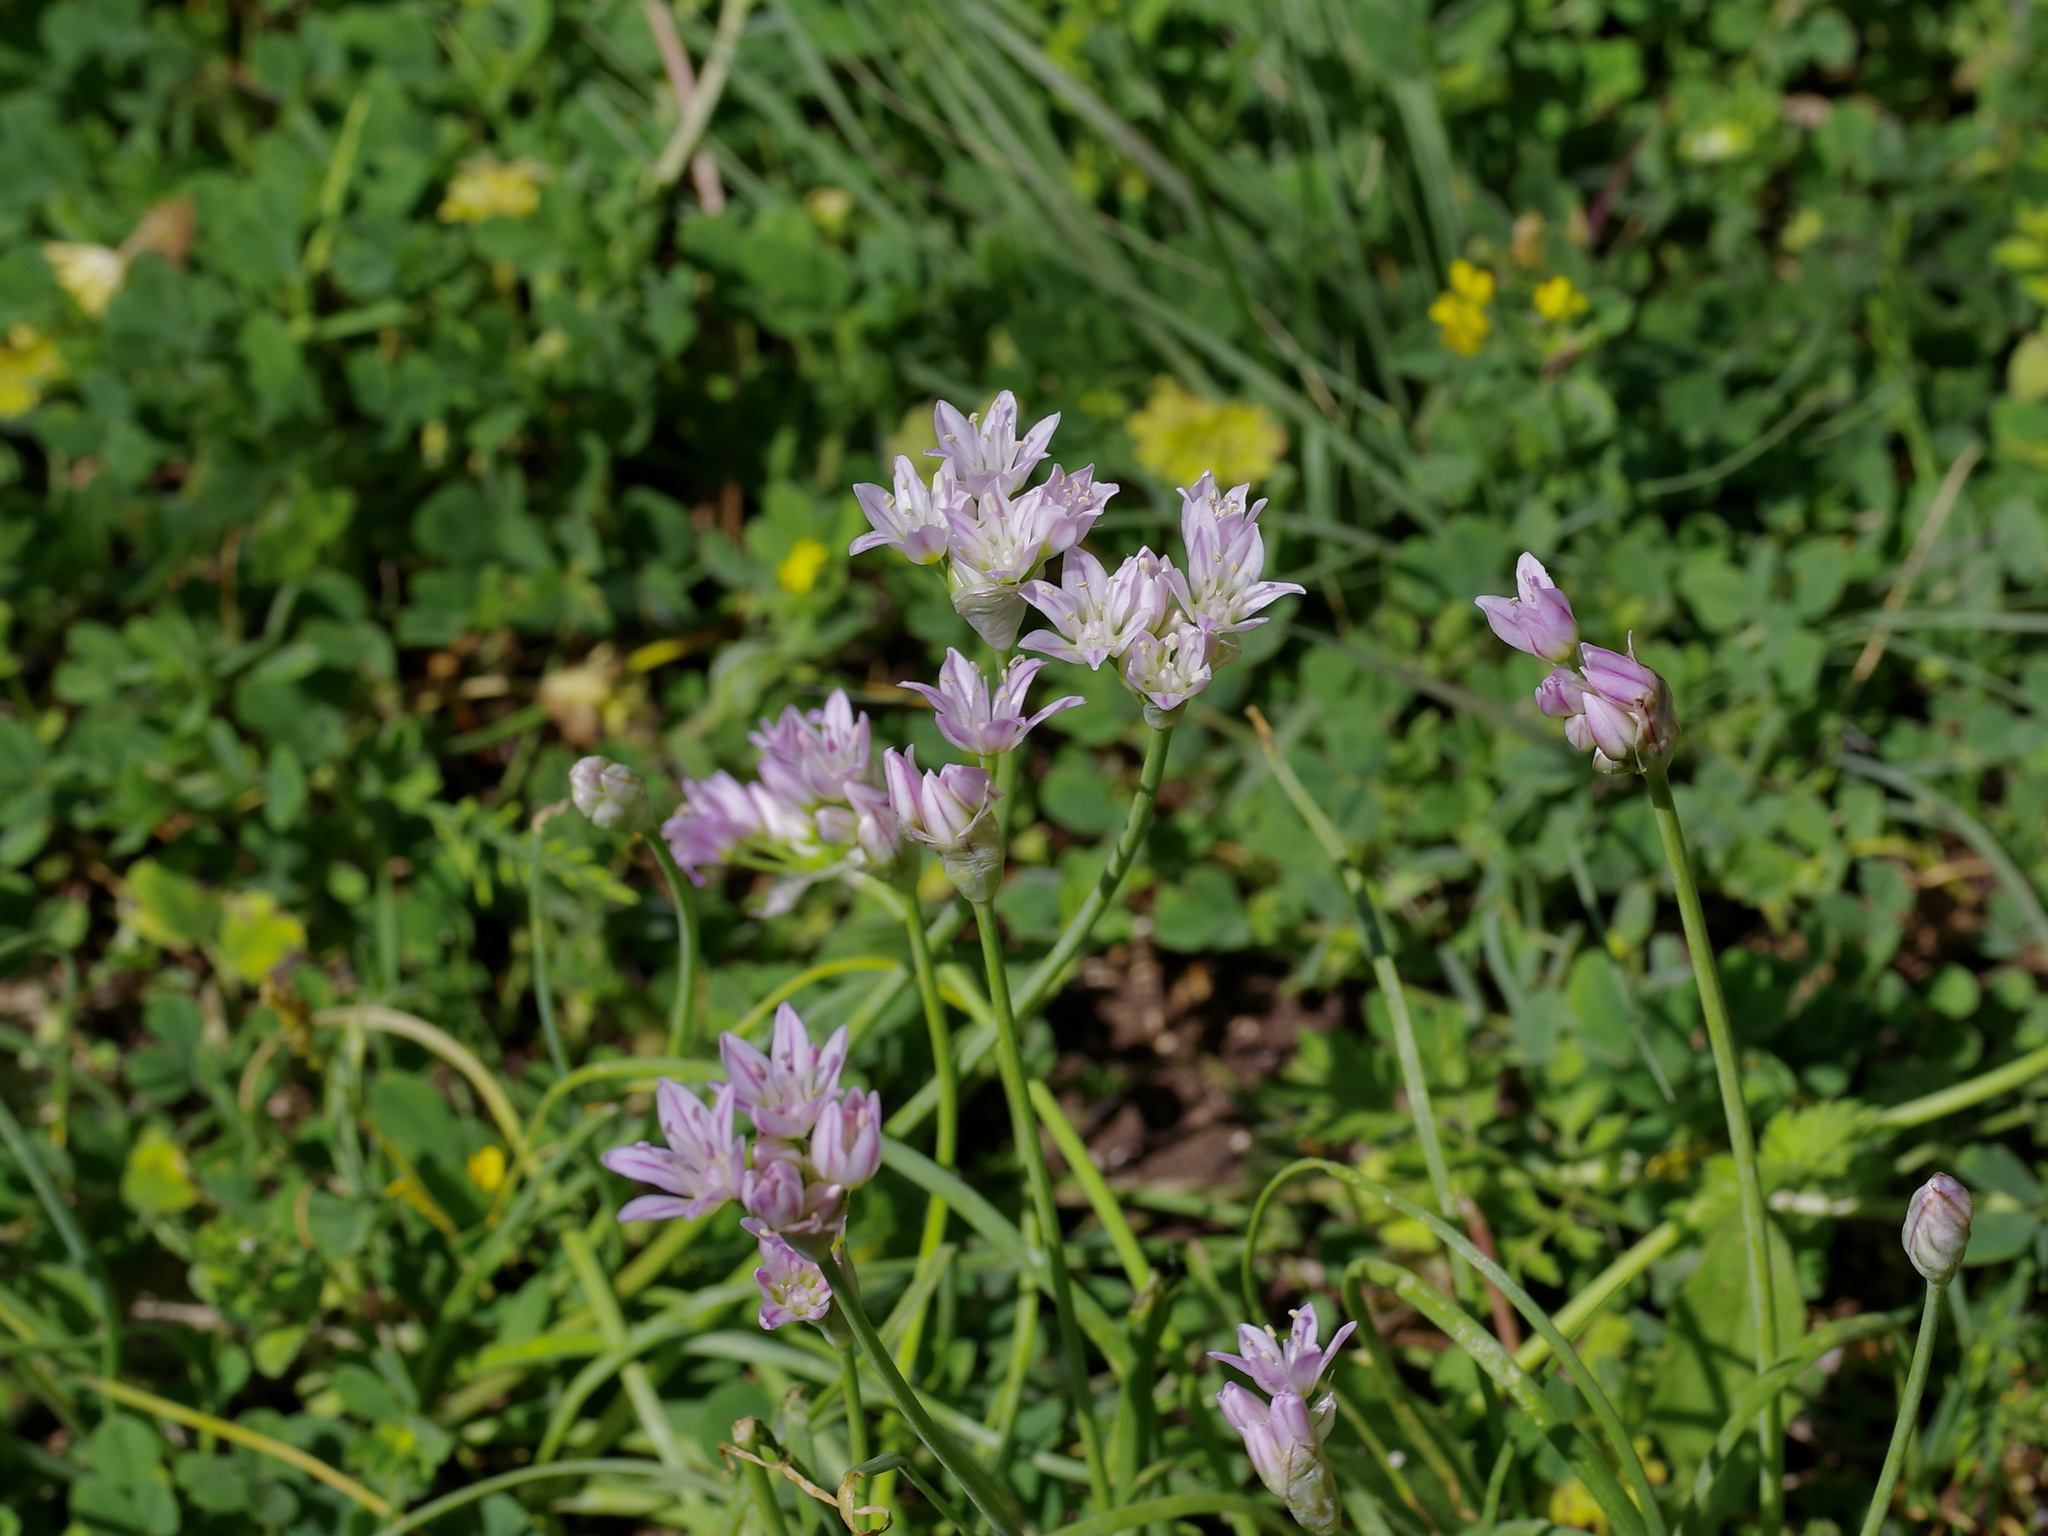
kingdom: Plantae
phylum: Tracheophyta
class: Liliopsida
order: Asparagales
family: Amaryllidaceae
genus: Allium
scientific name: Allium drummondii
